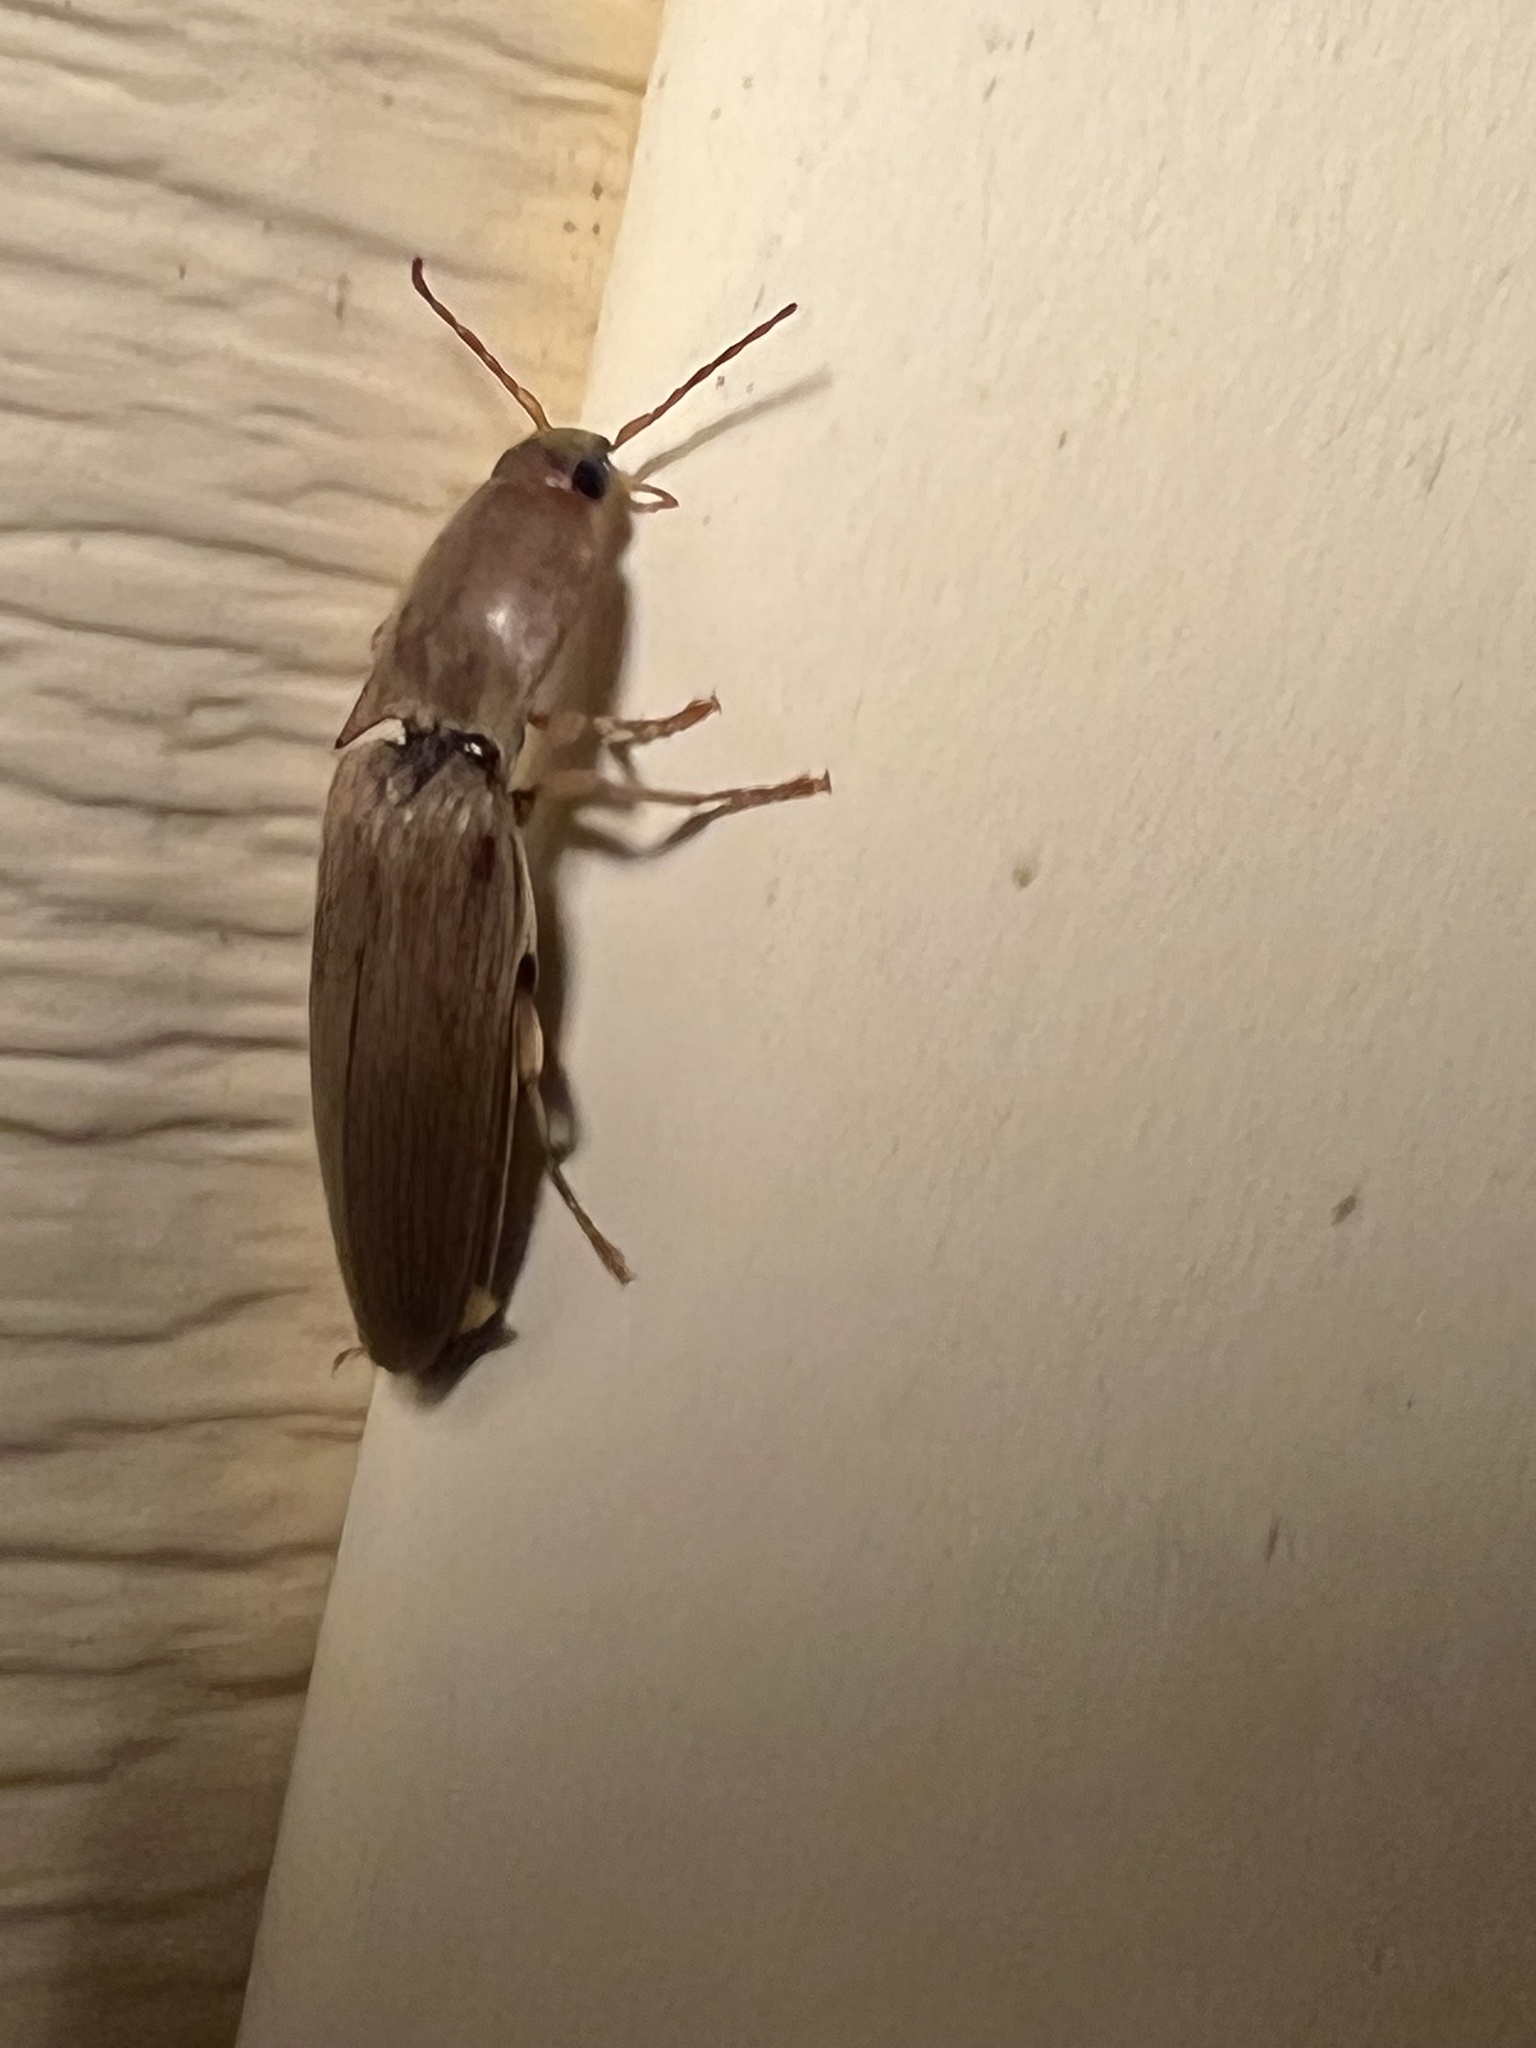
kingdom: Animalia
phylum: Arthropoda
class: Insecta
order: Coleoptera
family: Elateridae
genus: Monocrepidius
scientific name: Monocrepidius lividus
